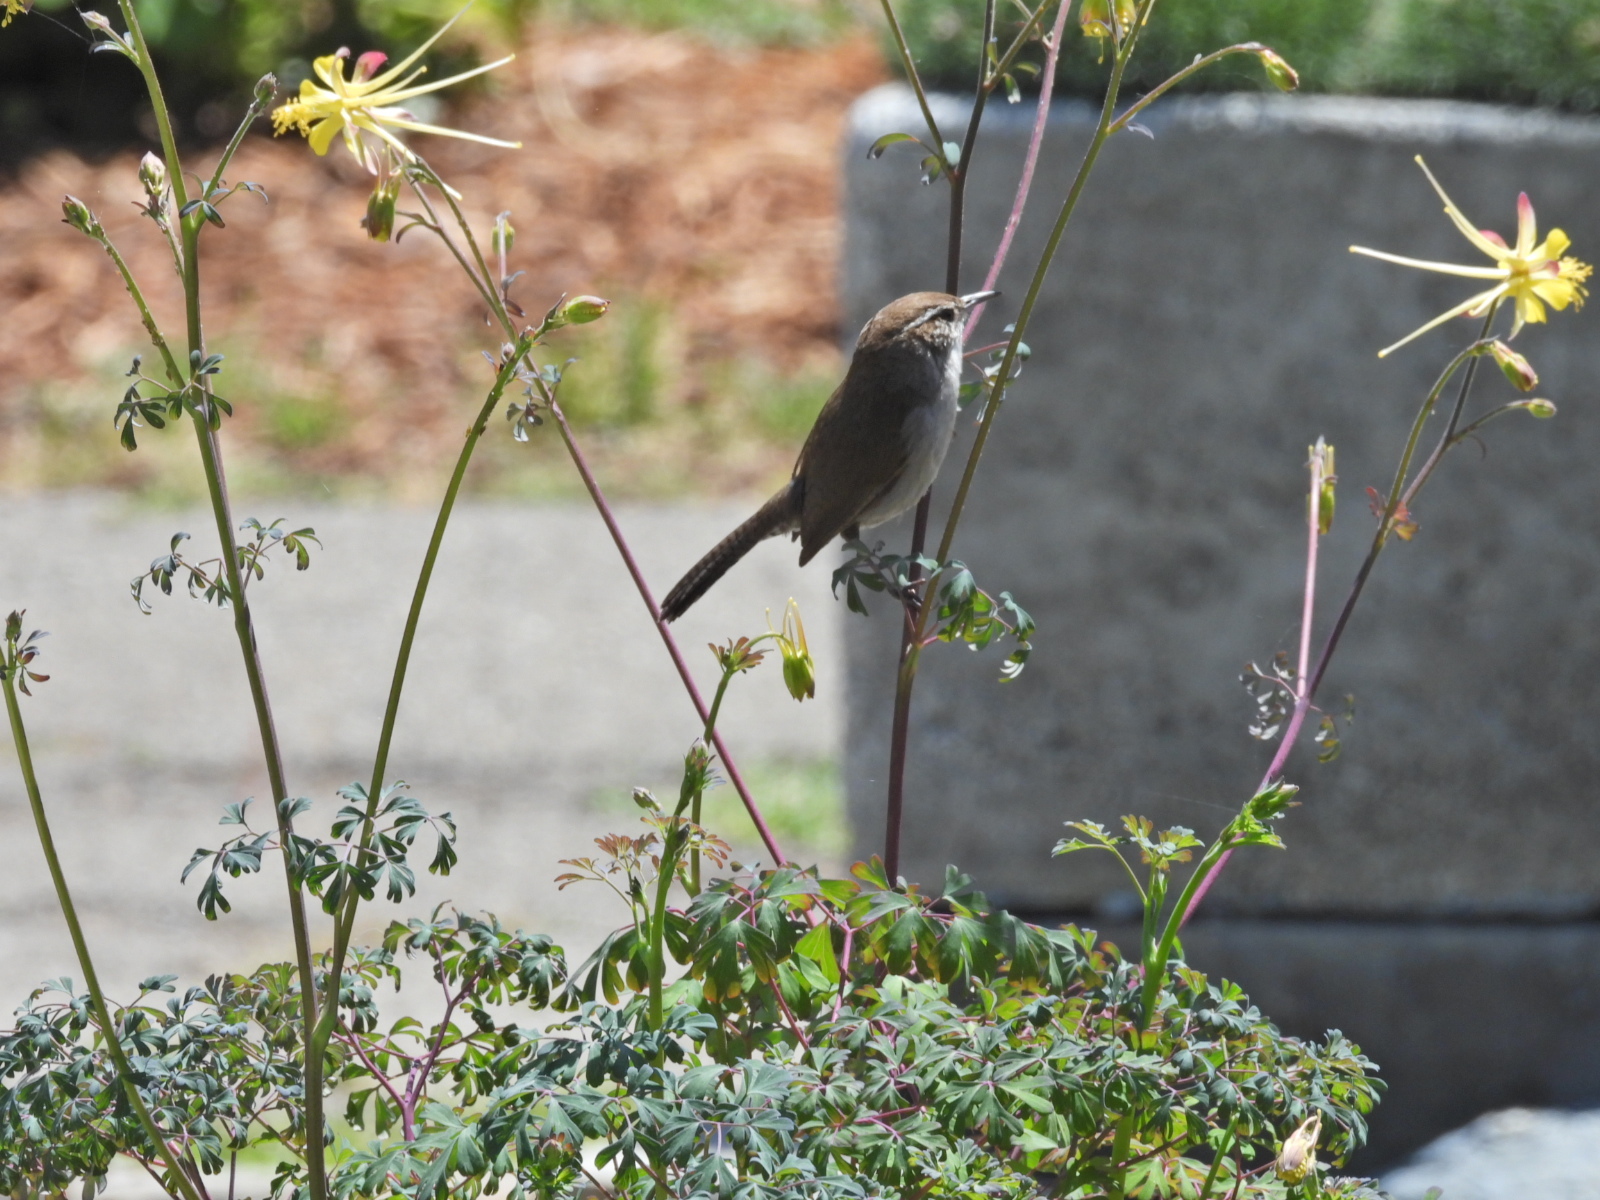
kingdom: Animalia
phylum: Chordata
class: Aves
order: Passeriformes
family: Troglodytidae
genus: Thryomanes
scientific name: Thryomanes bewickii
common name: Bewick's wren
